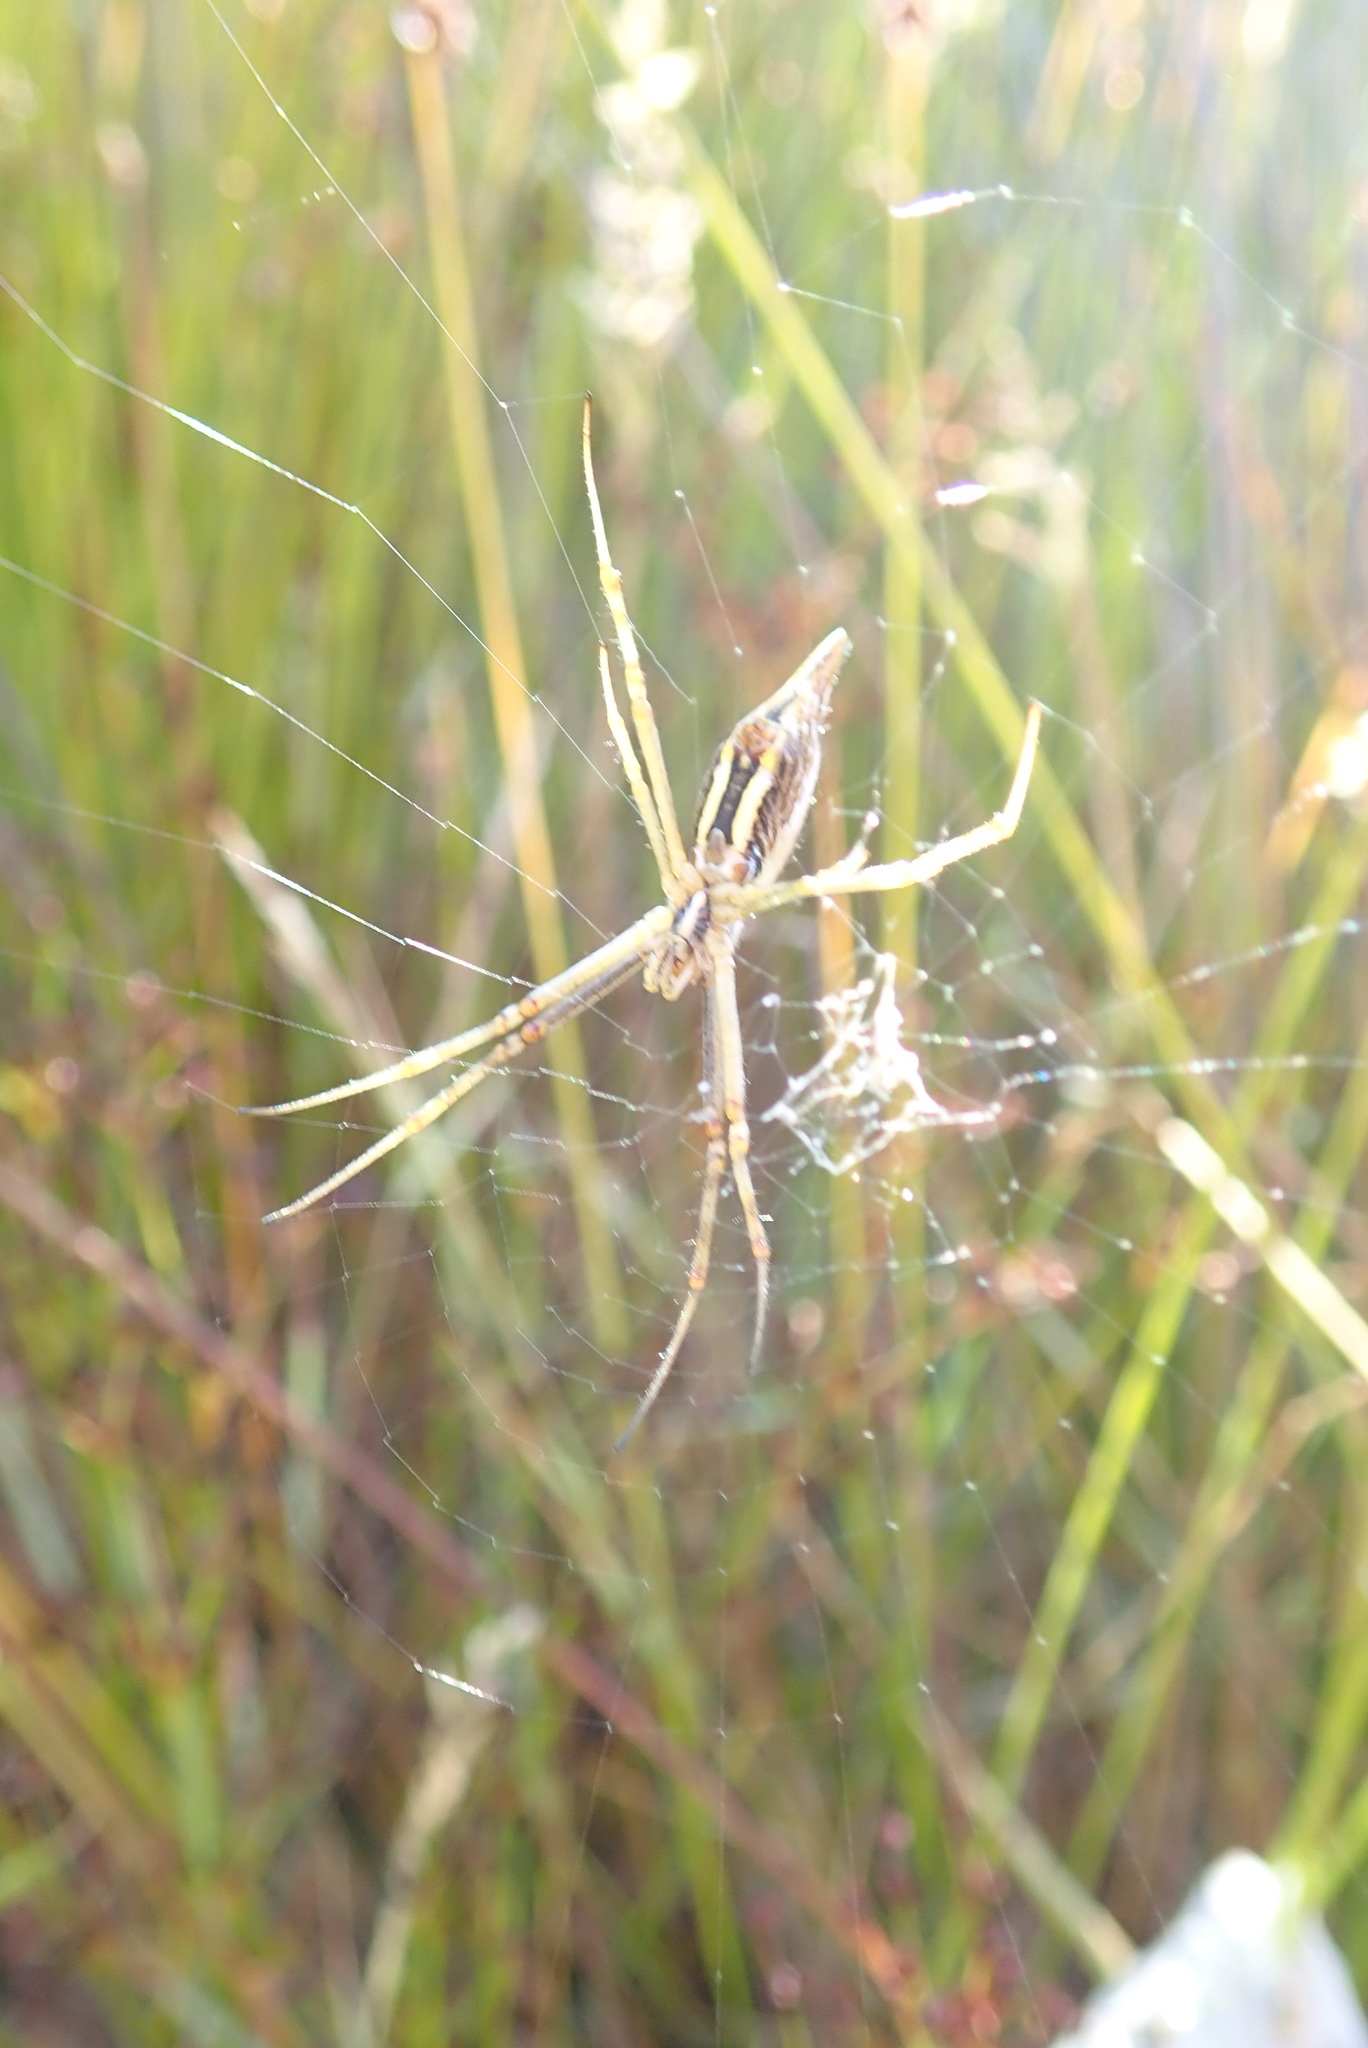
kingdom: Animalia
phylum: Arthropoda
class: Arachnida
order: Araneae
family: Araneidae
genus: Argiope
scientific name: Argiope protensa
